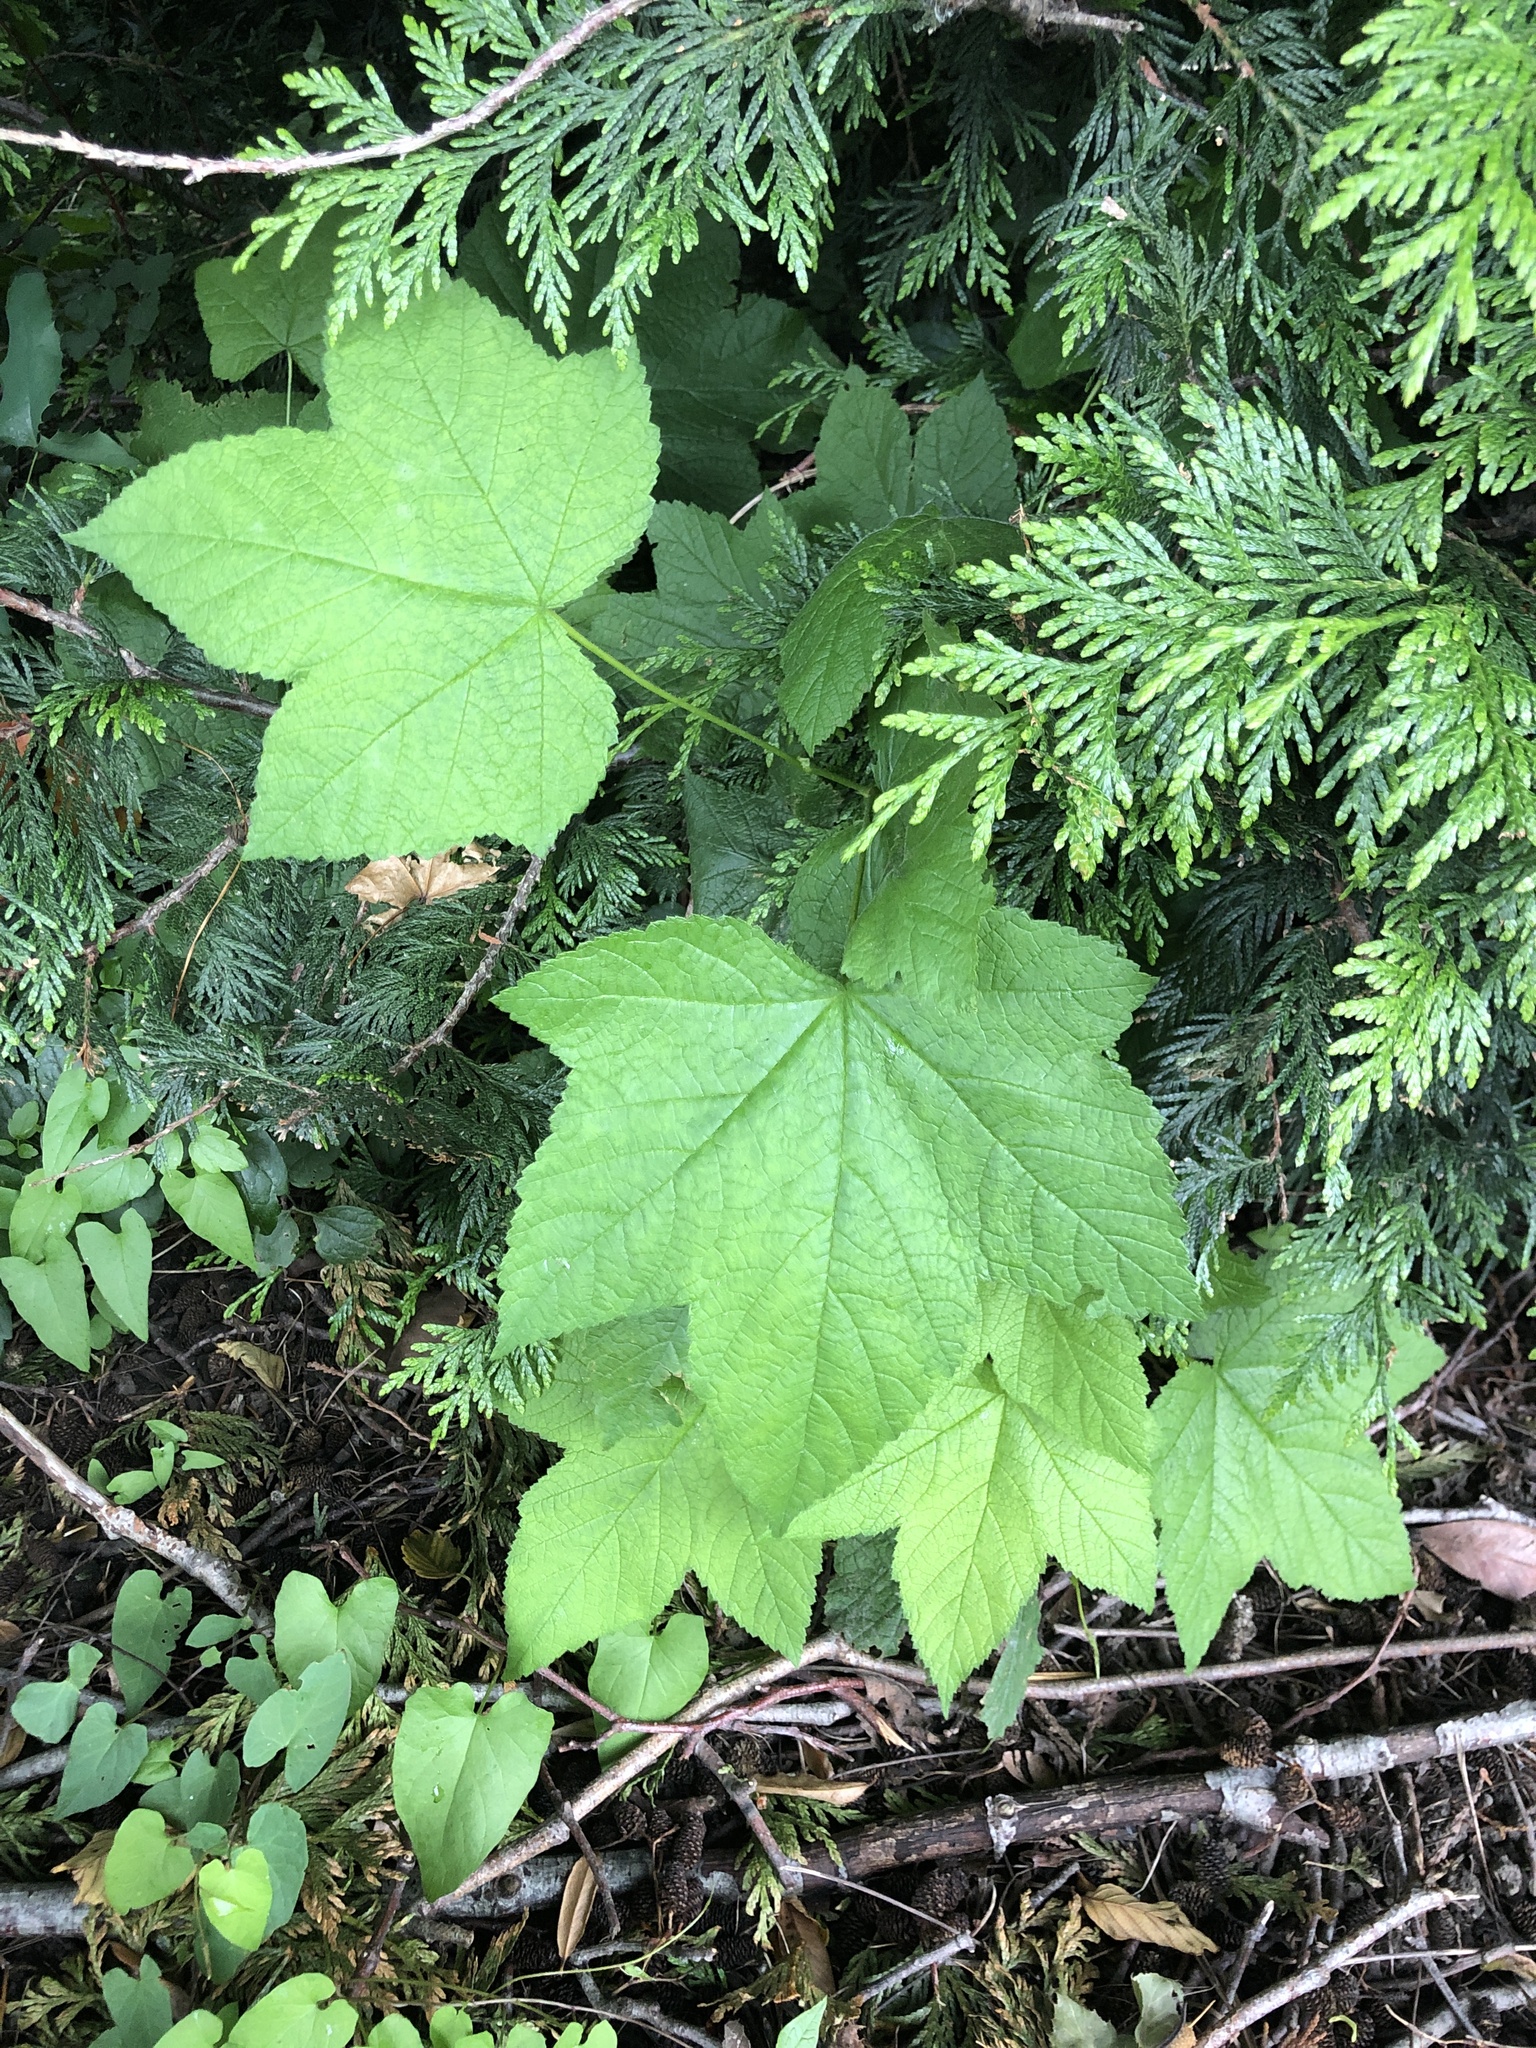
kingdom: Plantae
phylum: Tracheophyta
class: Magnoliopsida
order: Rosales
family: Rosaceae
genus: Rubus
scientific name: Rubus parviflorus
